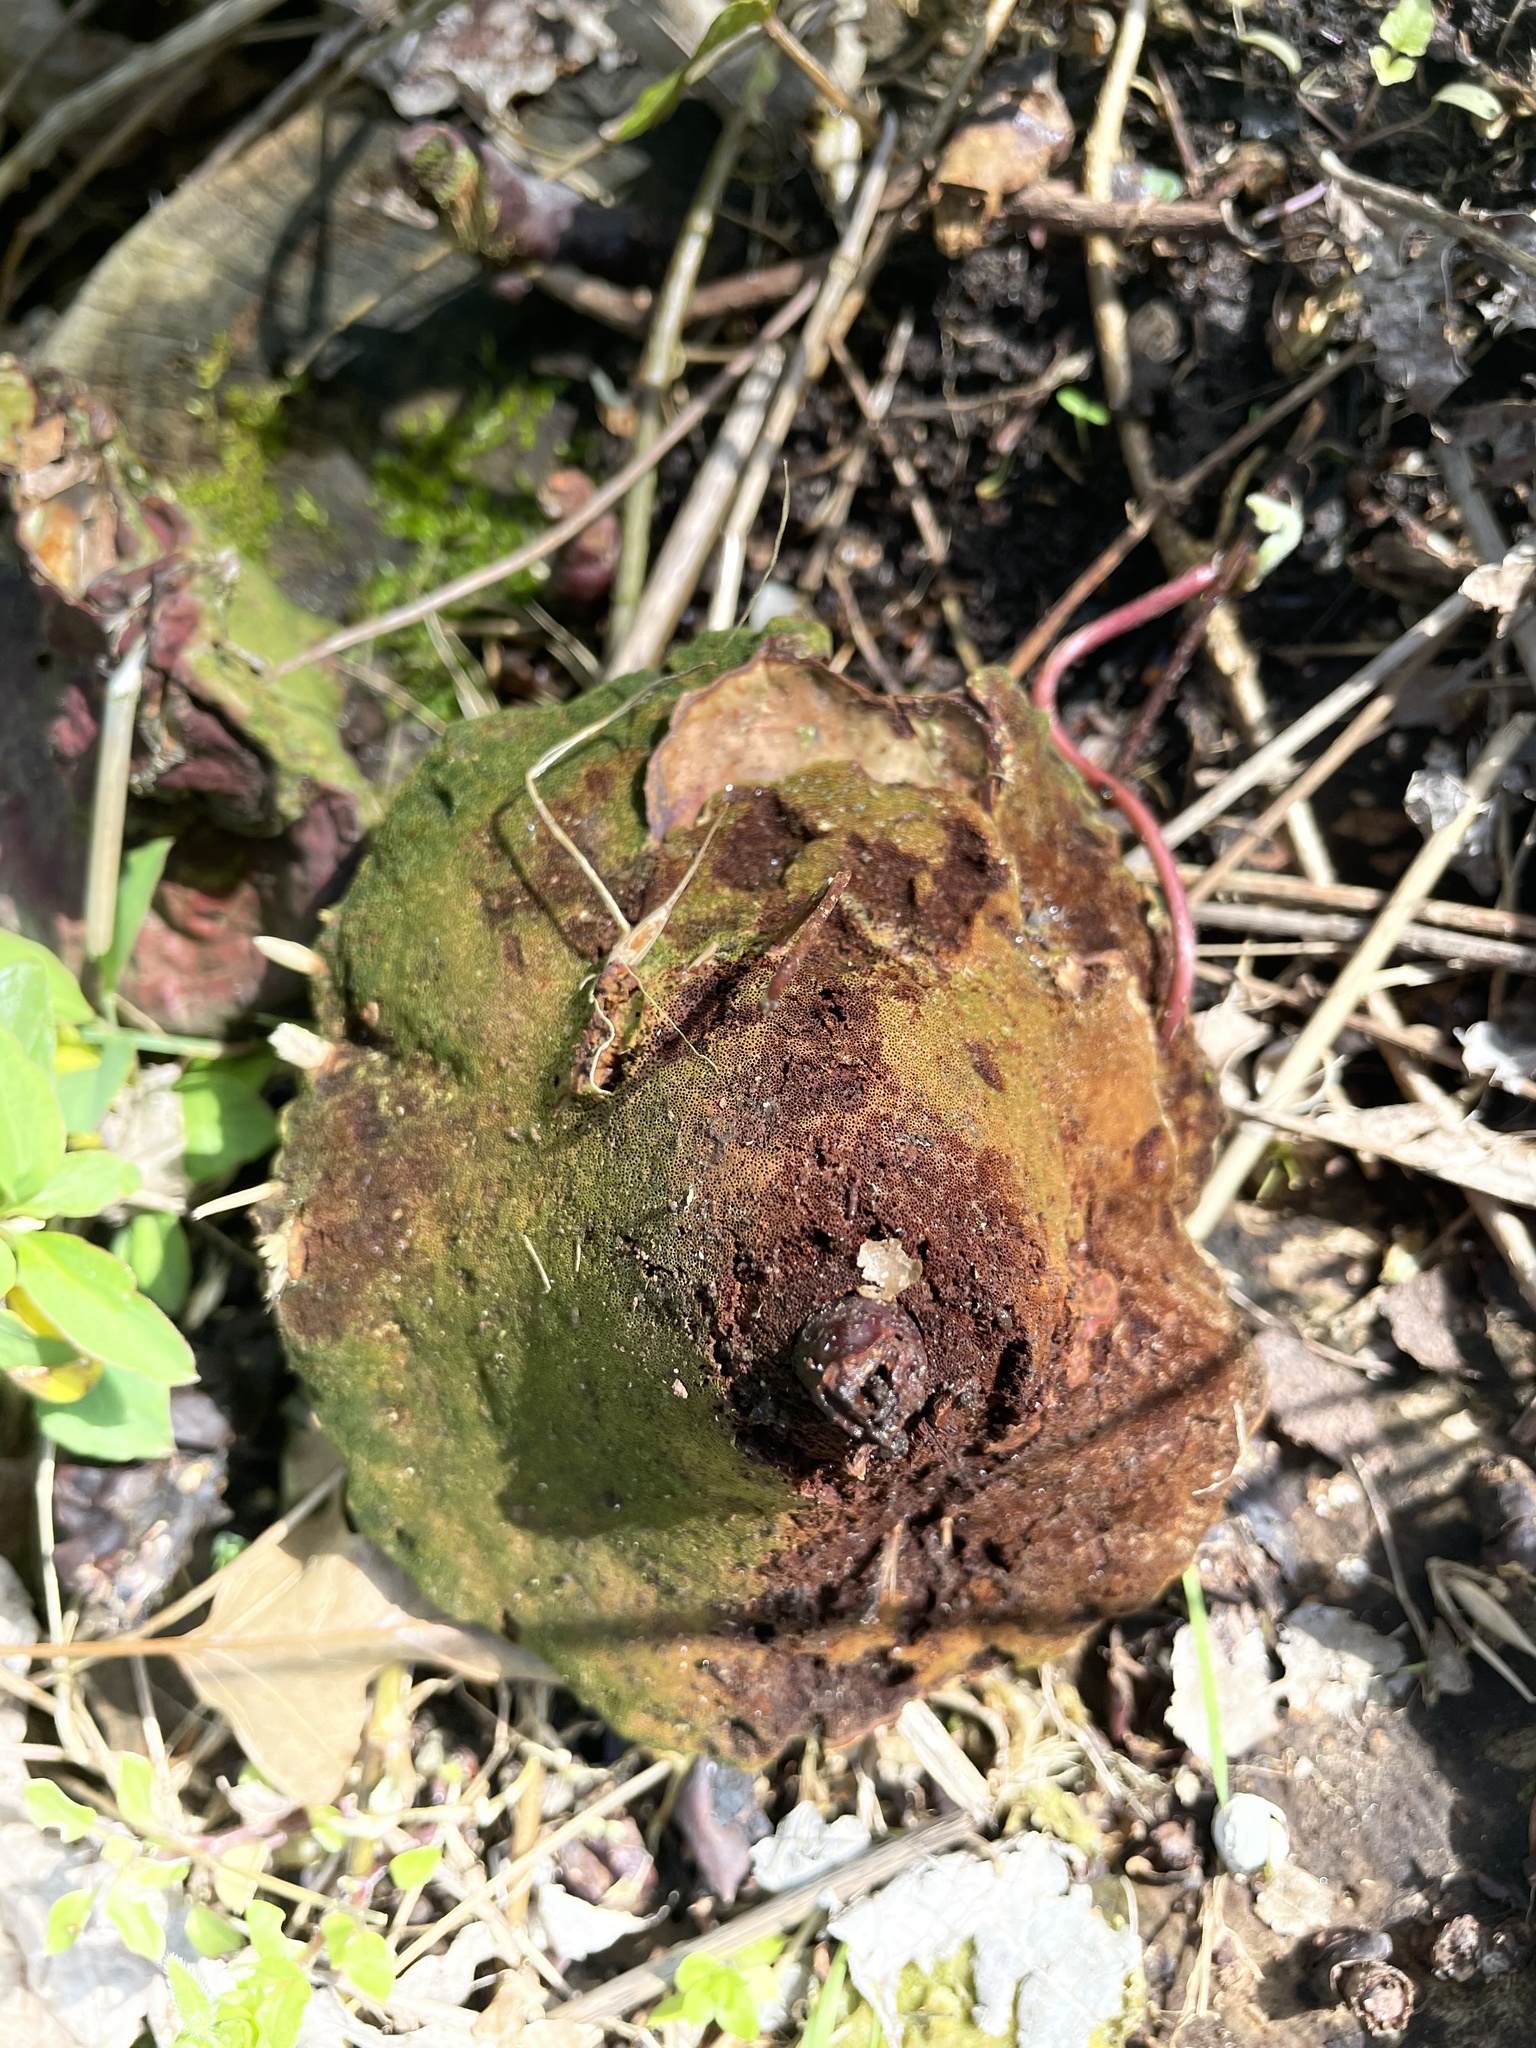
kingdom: Fungi
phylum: Basidiomycota
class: Agaricomycetes
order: Polyporales
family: Polyporaceae
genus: Ganoderma
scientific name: Ganoderma curtisii
